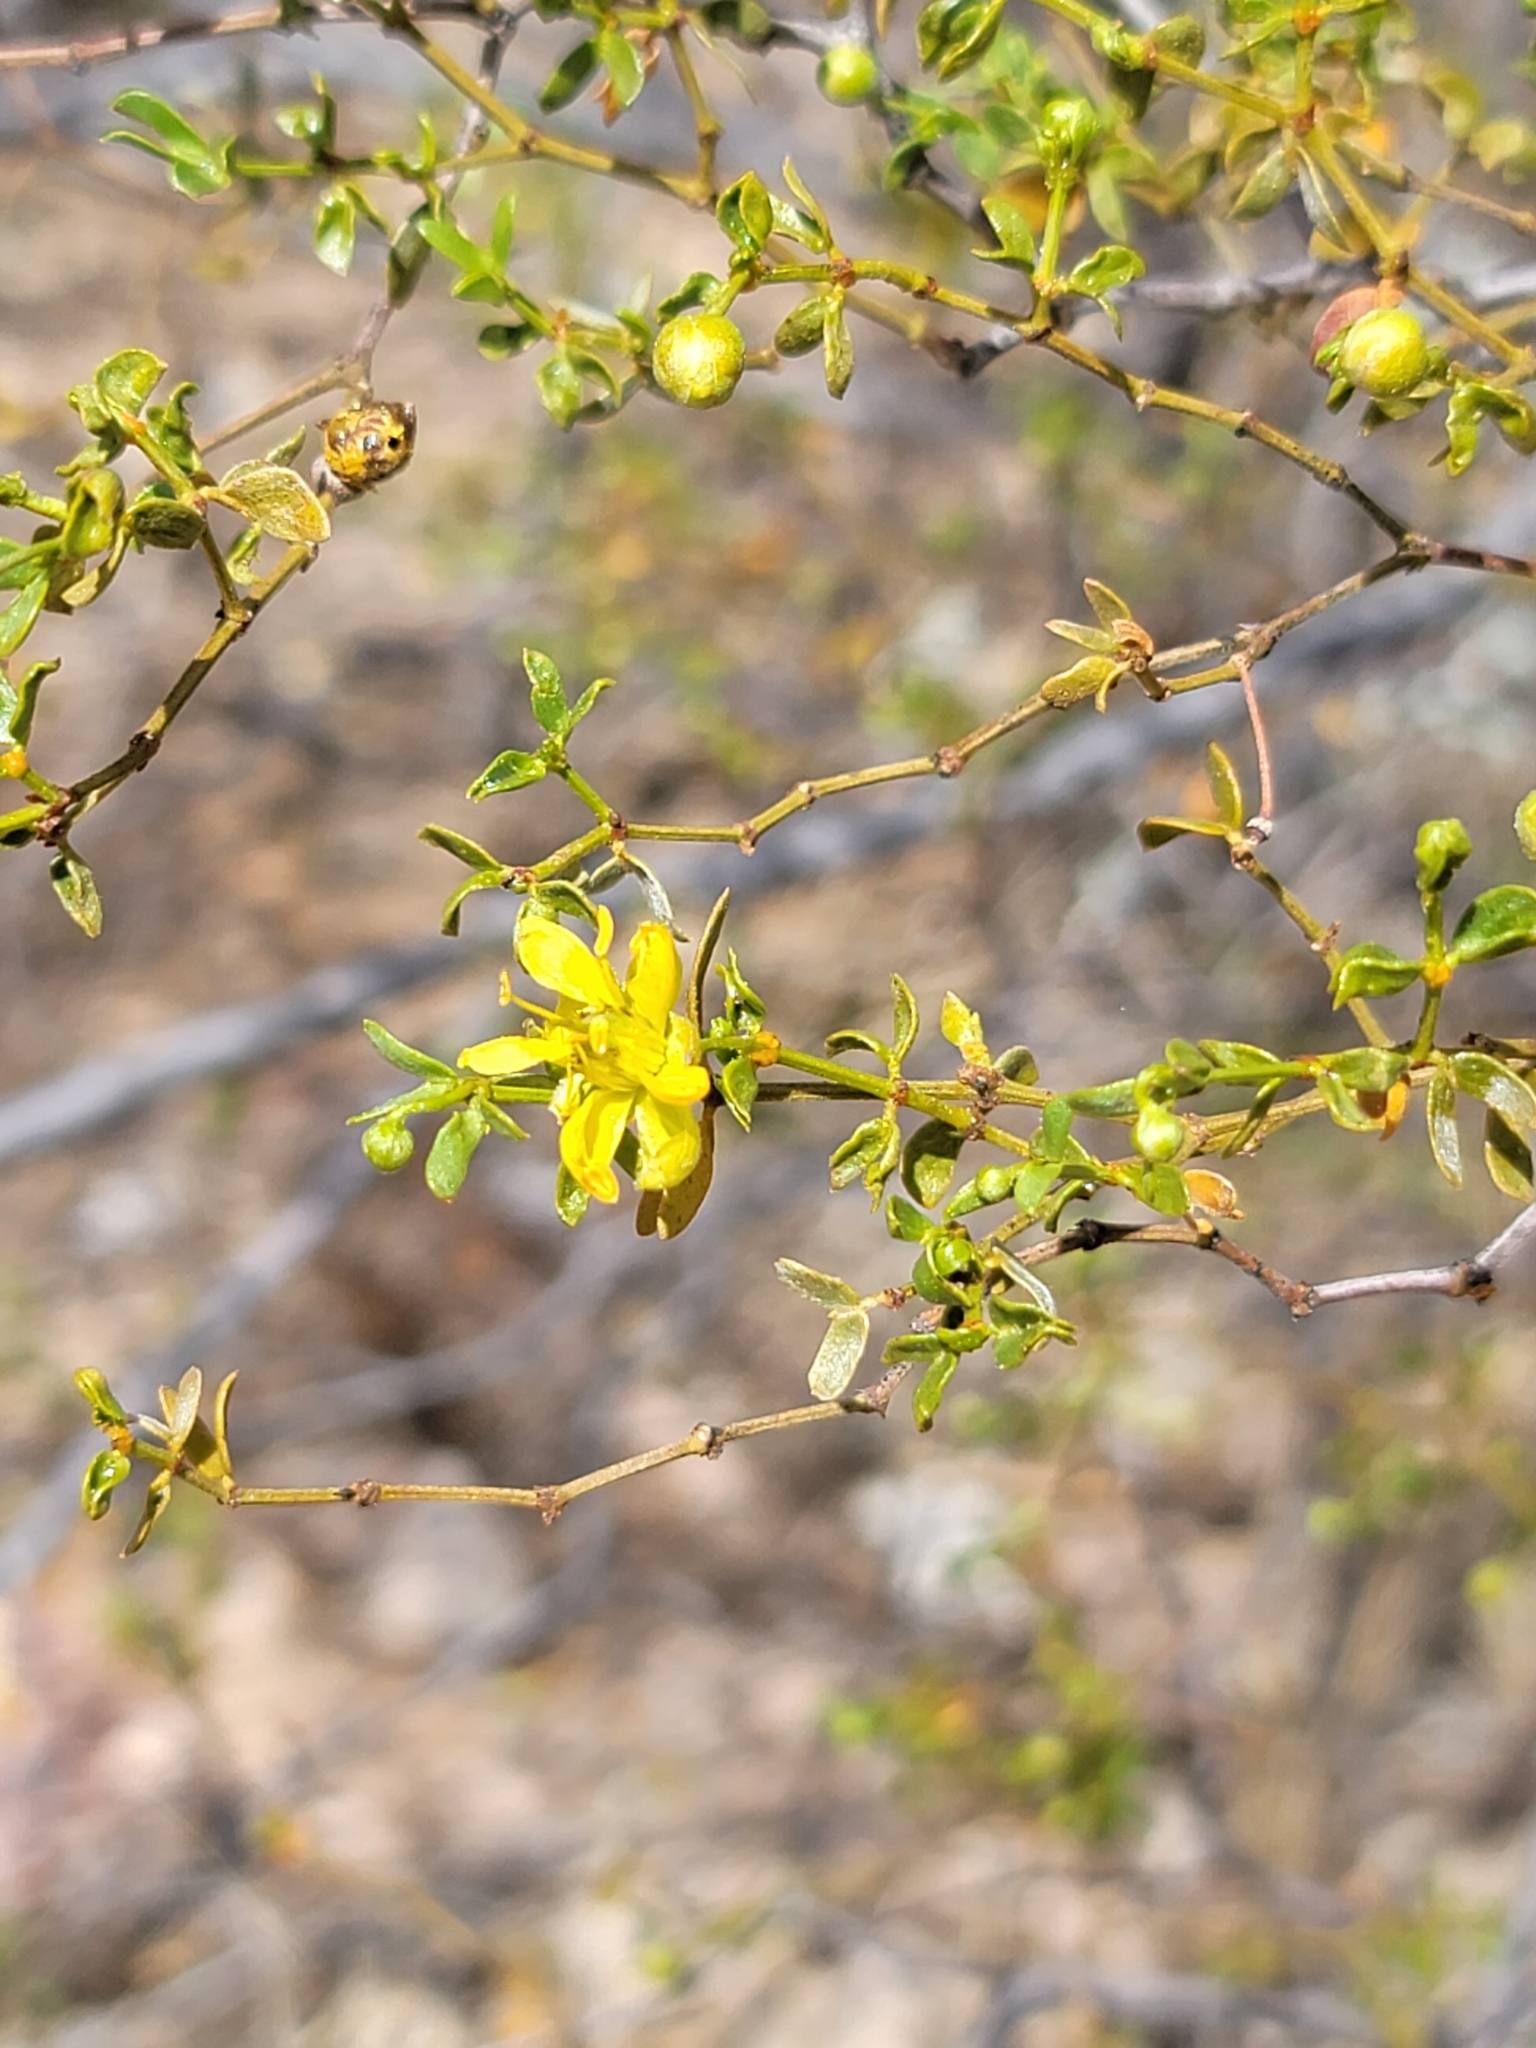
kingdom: Plantae
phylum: Tracheophyta
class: Magnoliopsida
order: Zygophyllales
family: Zygophyllaceae
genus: Larrea
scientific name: Larrea tridentata
